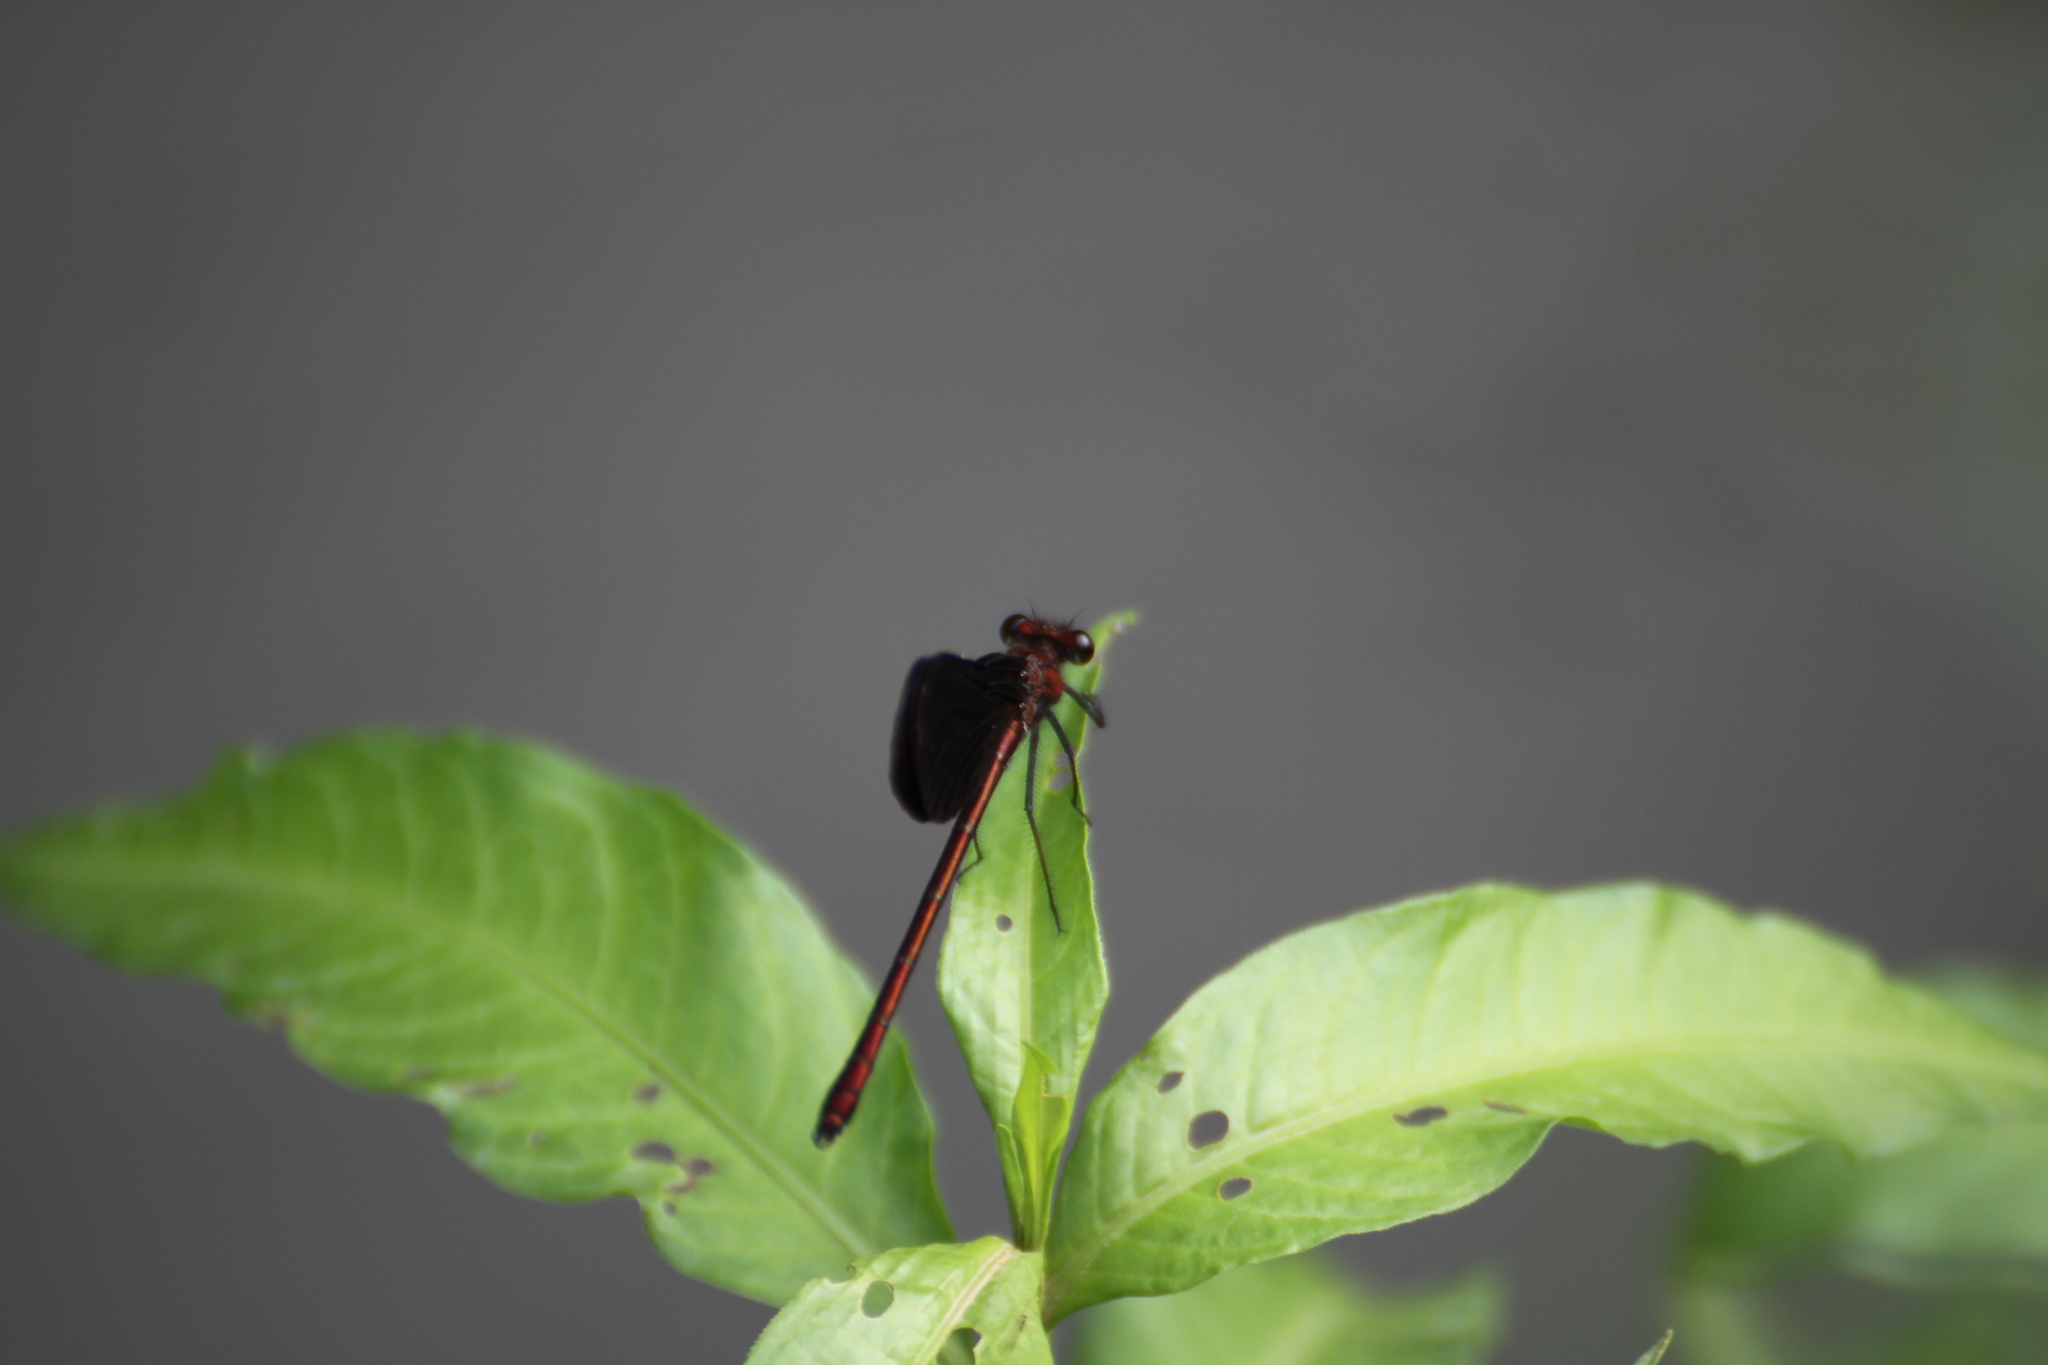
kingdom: Animalia
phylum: Arthropoda
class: Insecta
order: Odonata
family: Calopterygidae
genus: Calopteryx
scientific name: Calopteryx haemorrhoidalis
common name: Copper demoiselle
